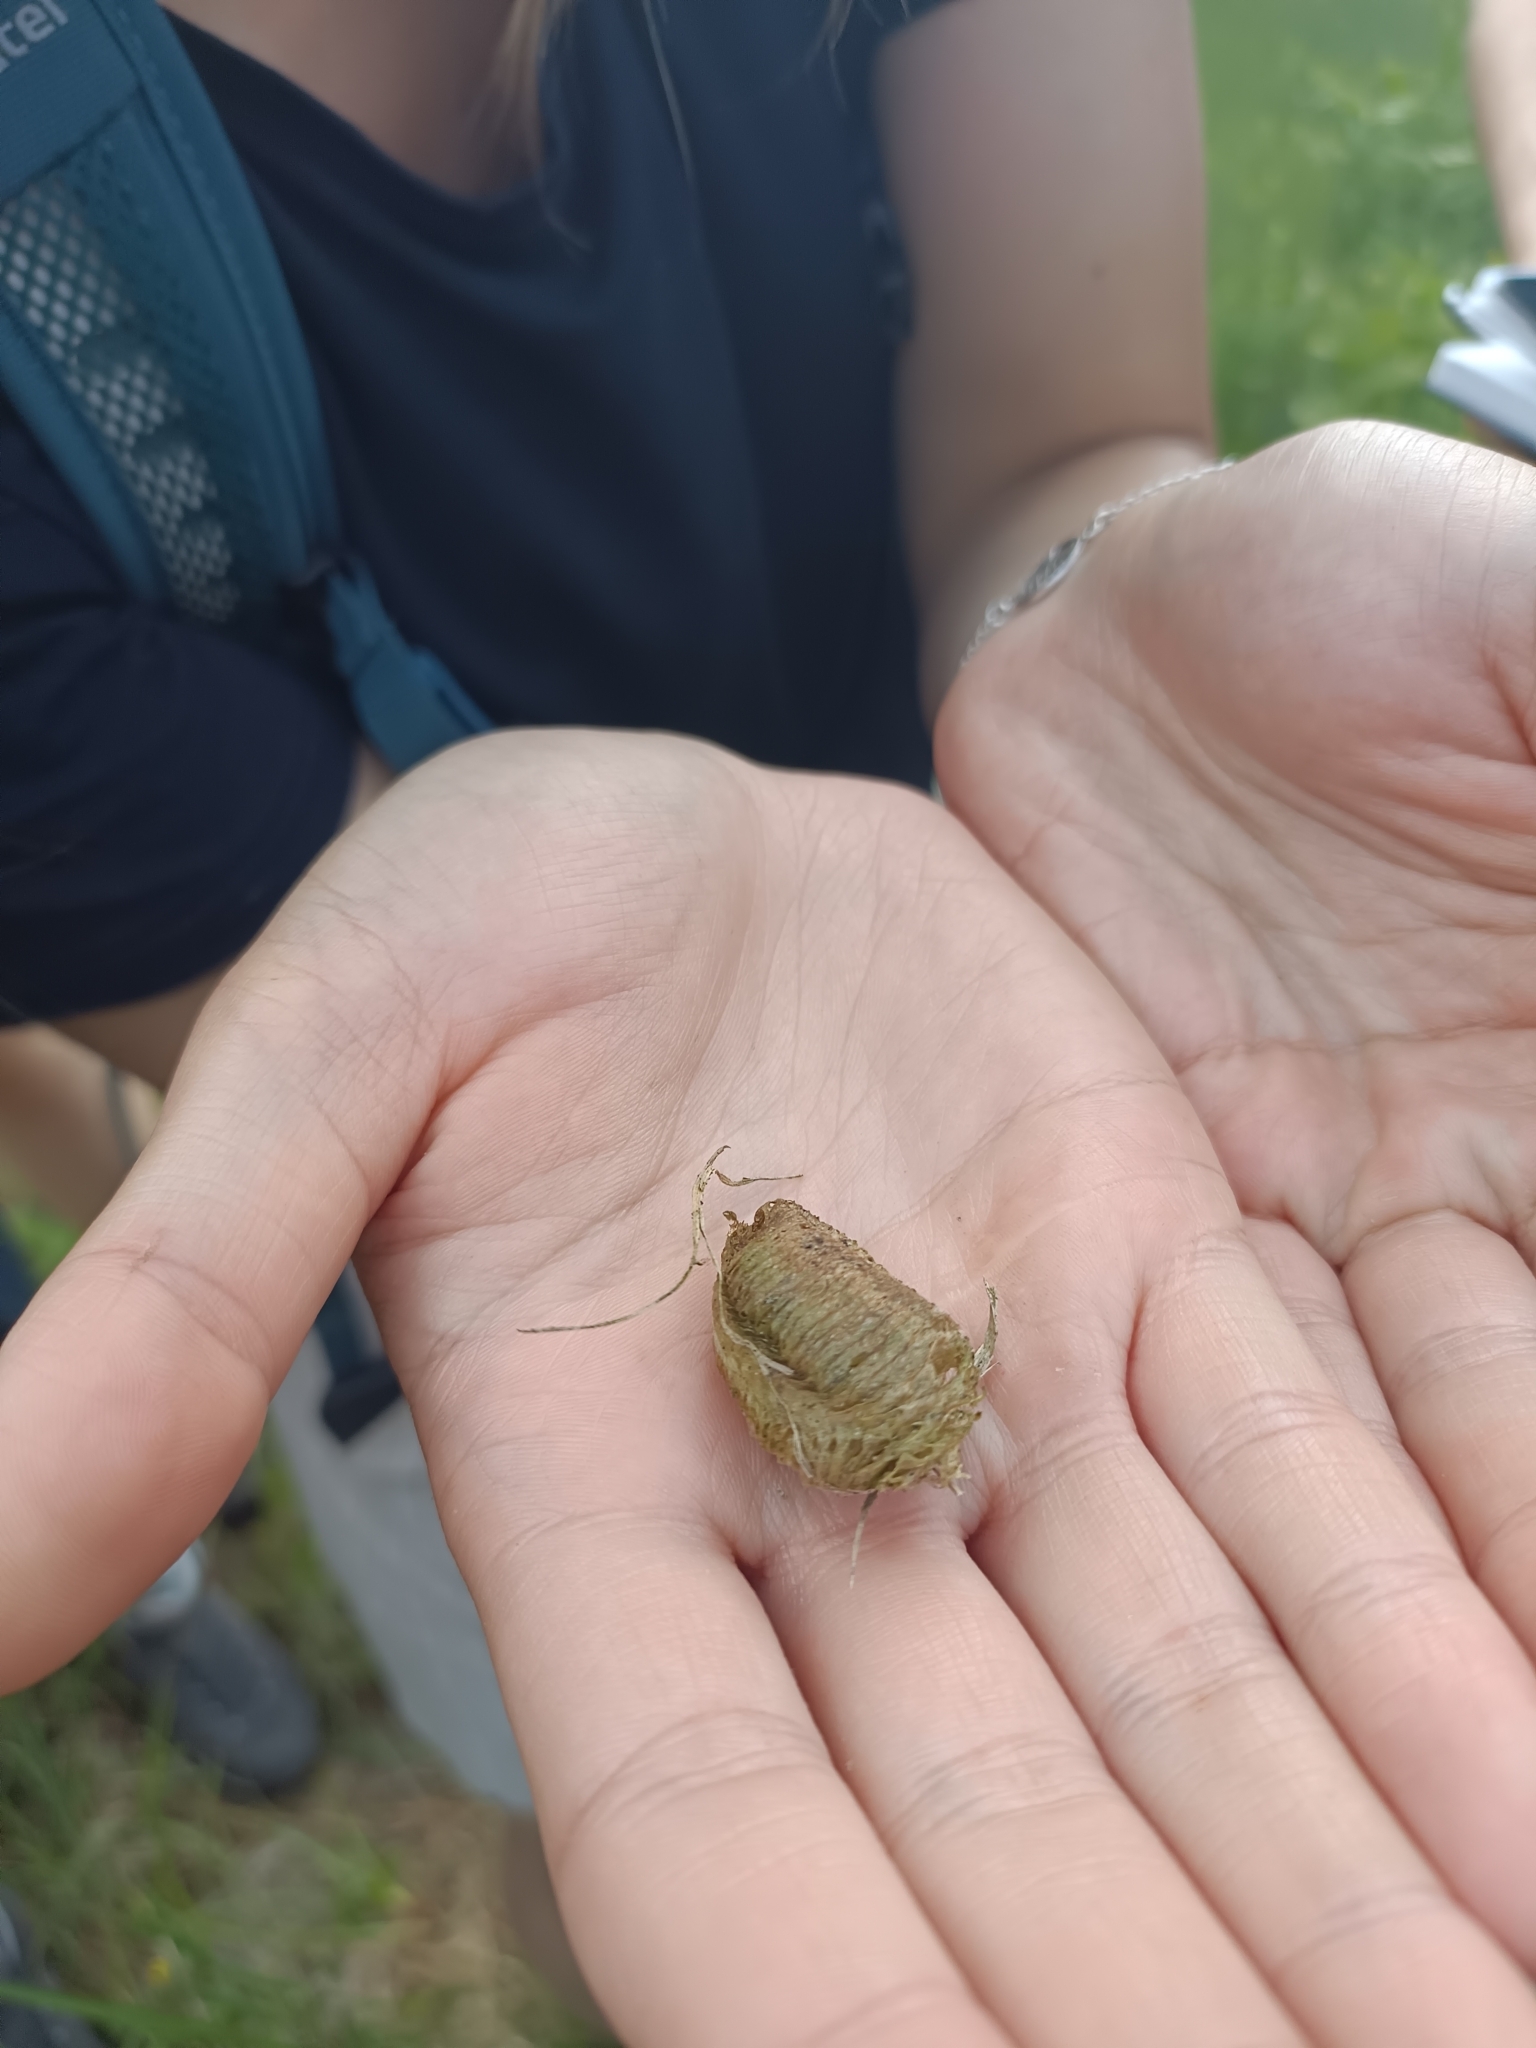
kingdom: Animalia
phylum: Arthropoda
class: Insecta
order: Mantodea
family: Mantidae
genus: Mantis
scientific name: Mantis religiosa
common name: Praying mantis
